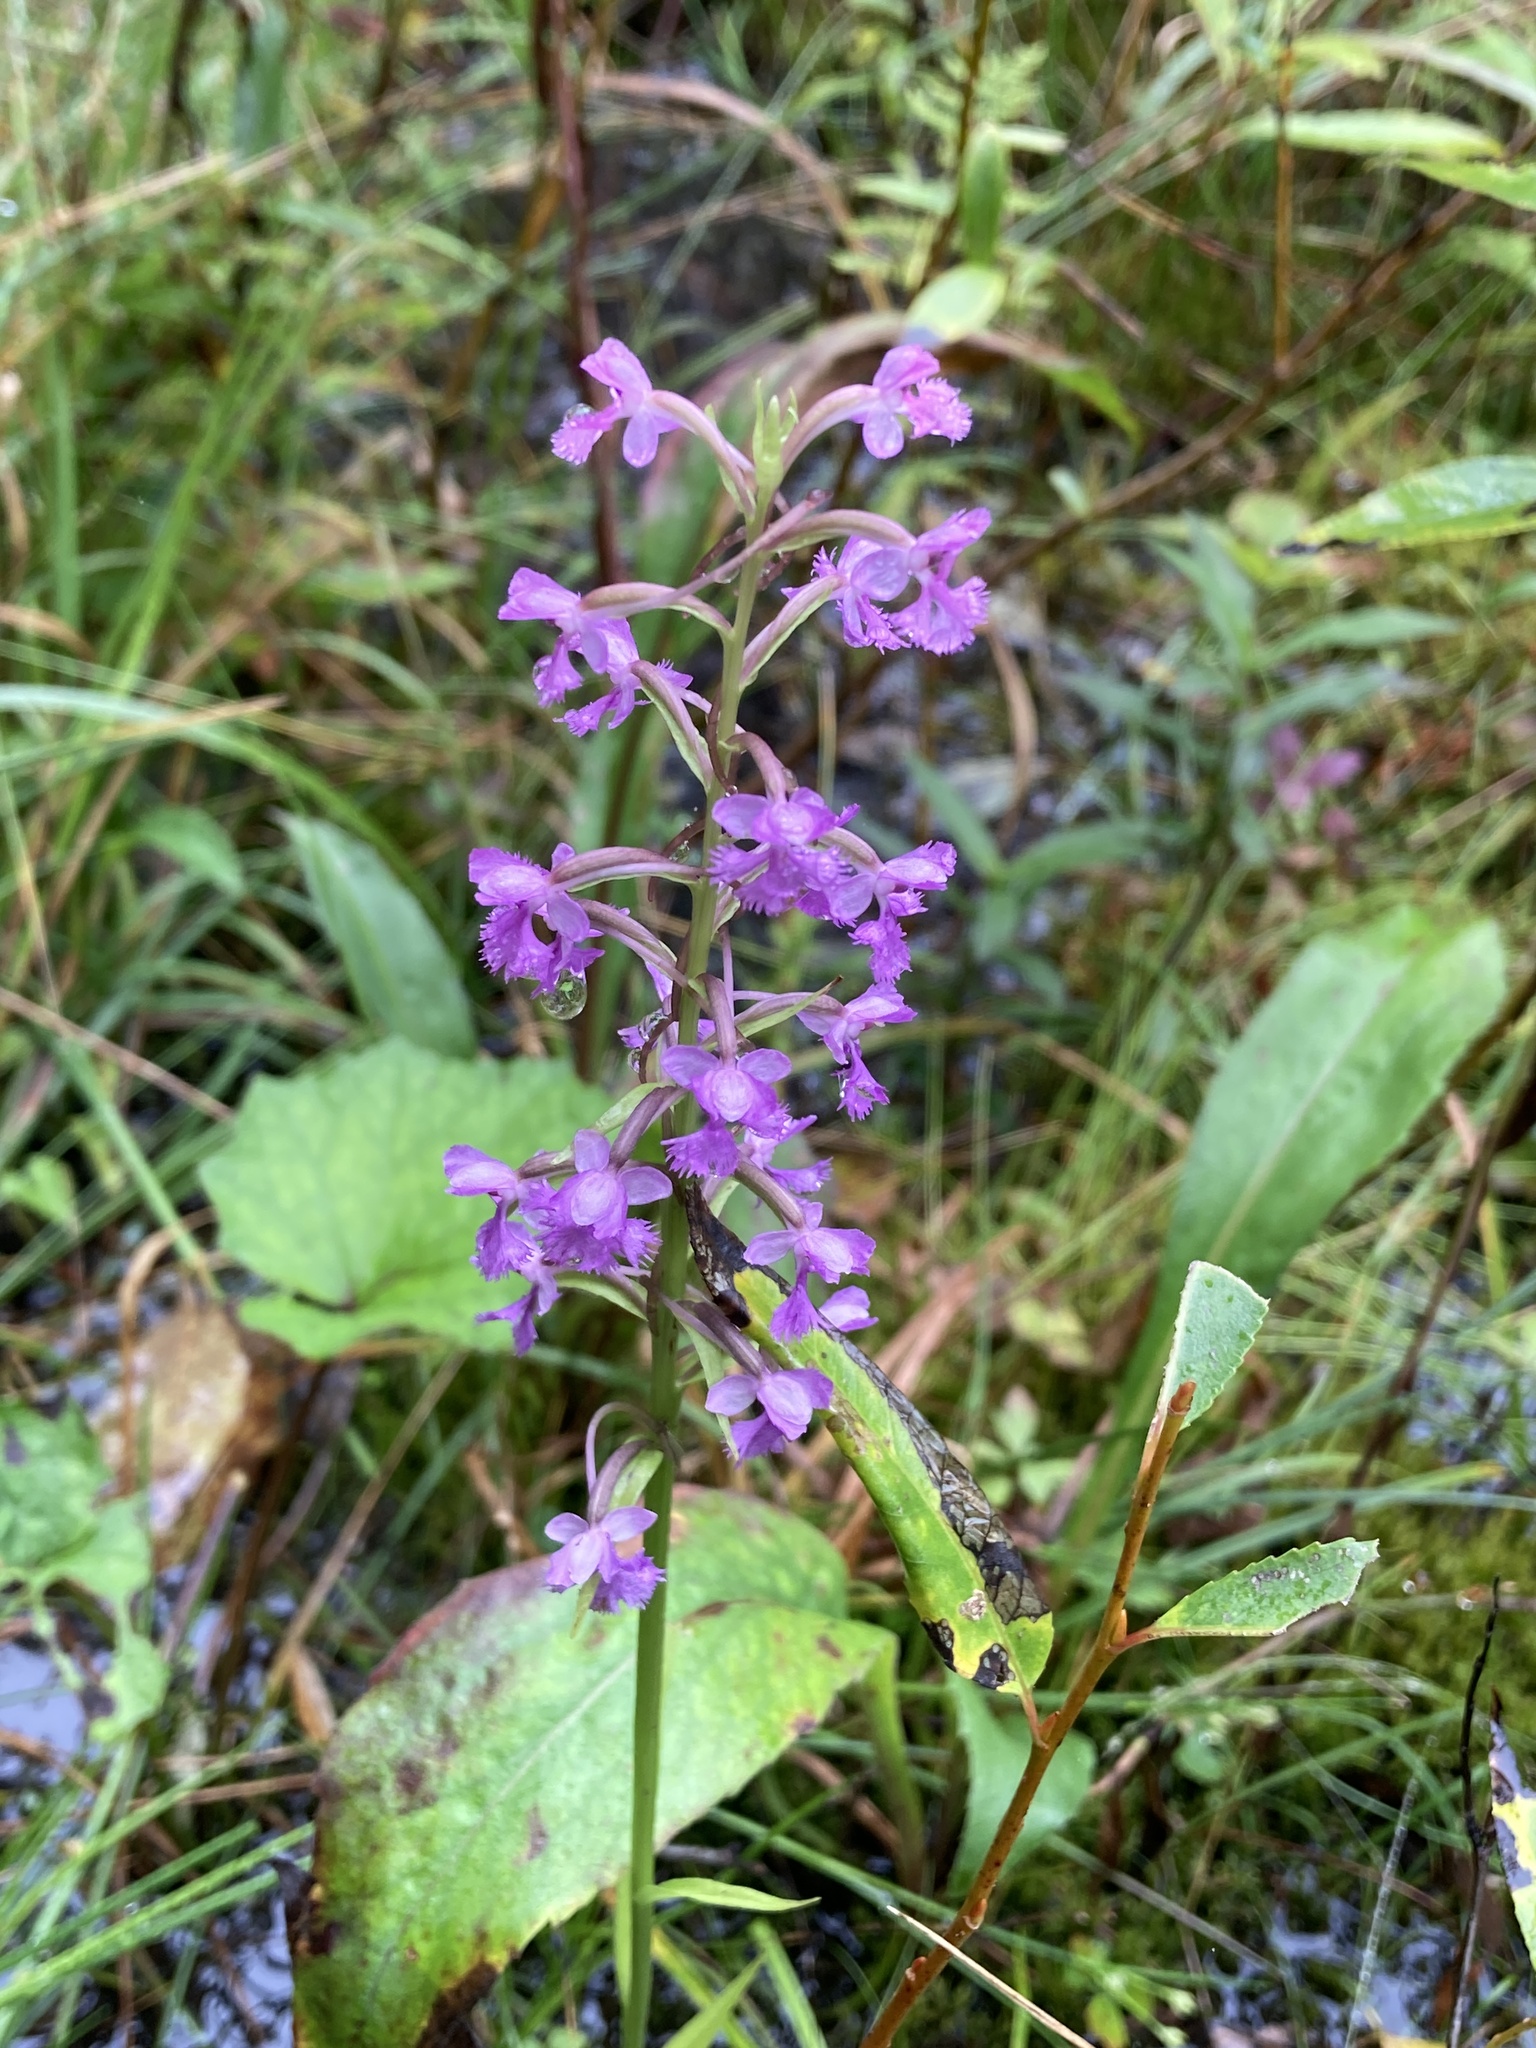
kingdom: Plantae
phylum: Tracheophyta
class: Liliopsida
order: Asparagales
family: Orchidaceae
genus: Platanthera
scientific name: Platanthera psycodes
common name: Lesser purple fringed orchid
